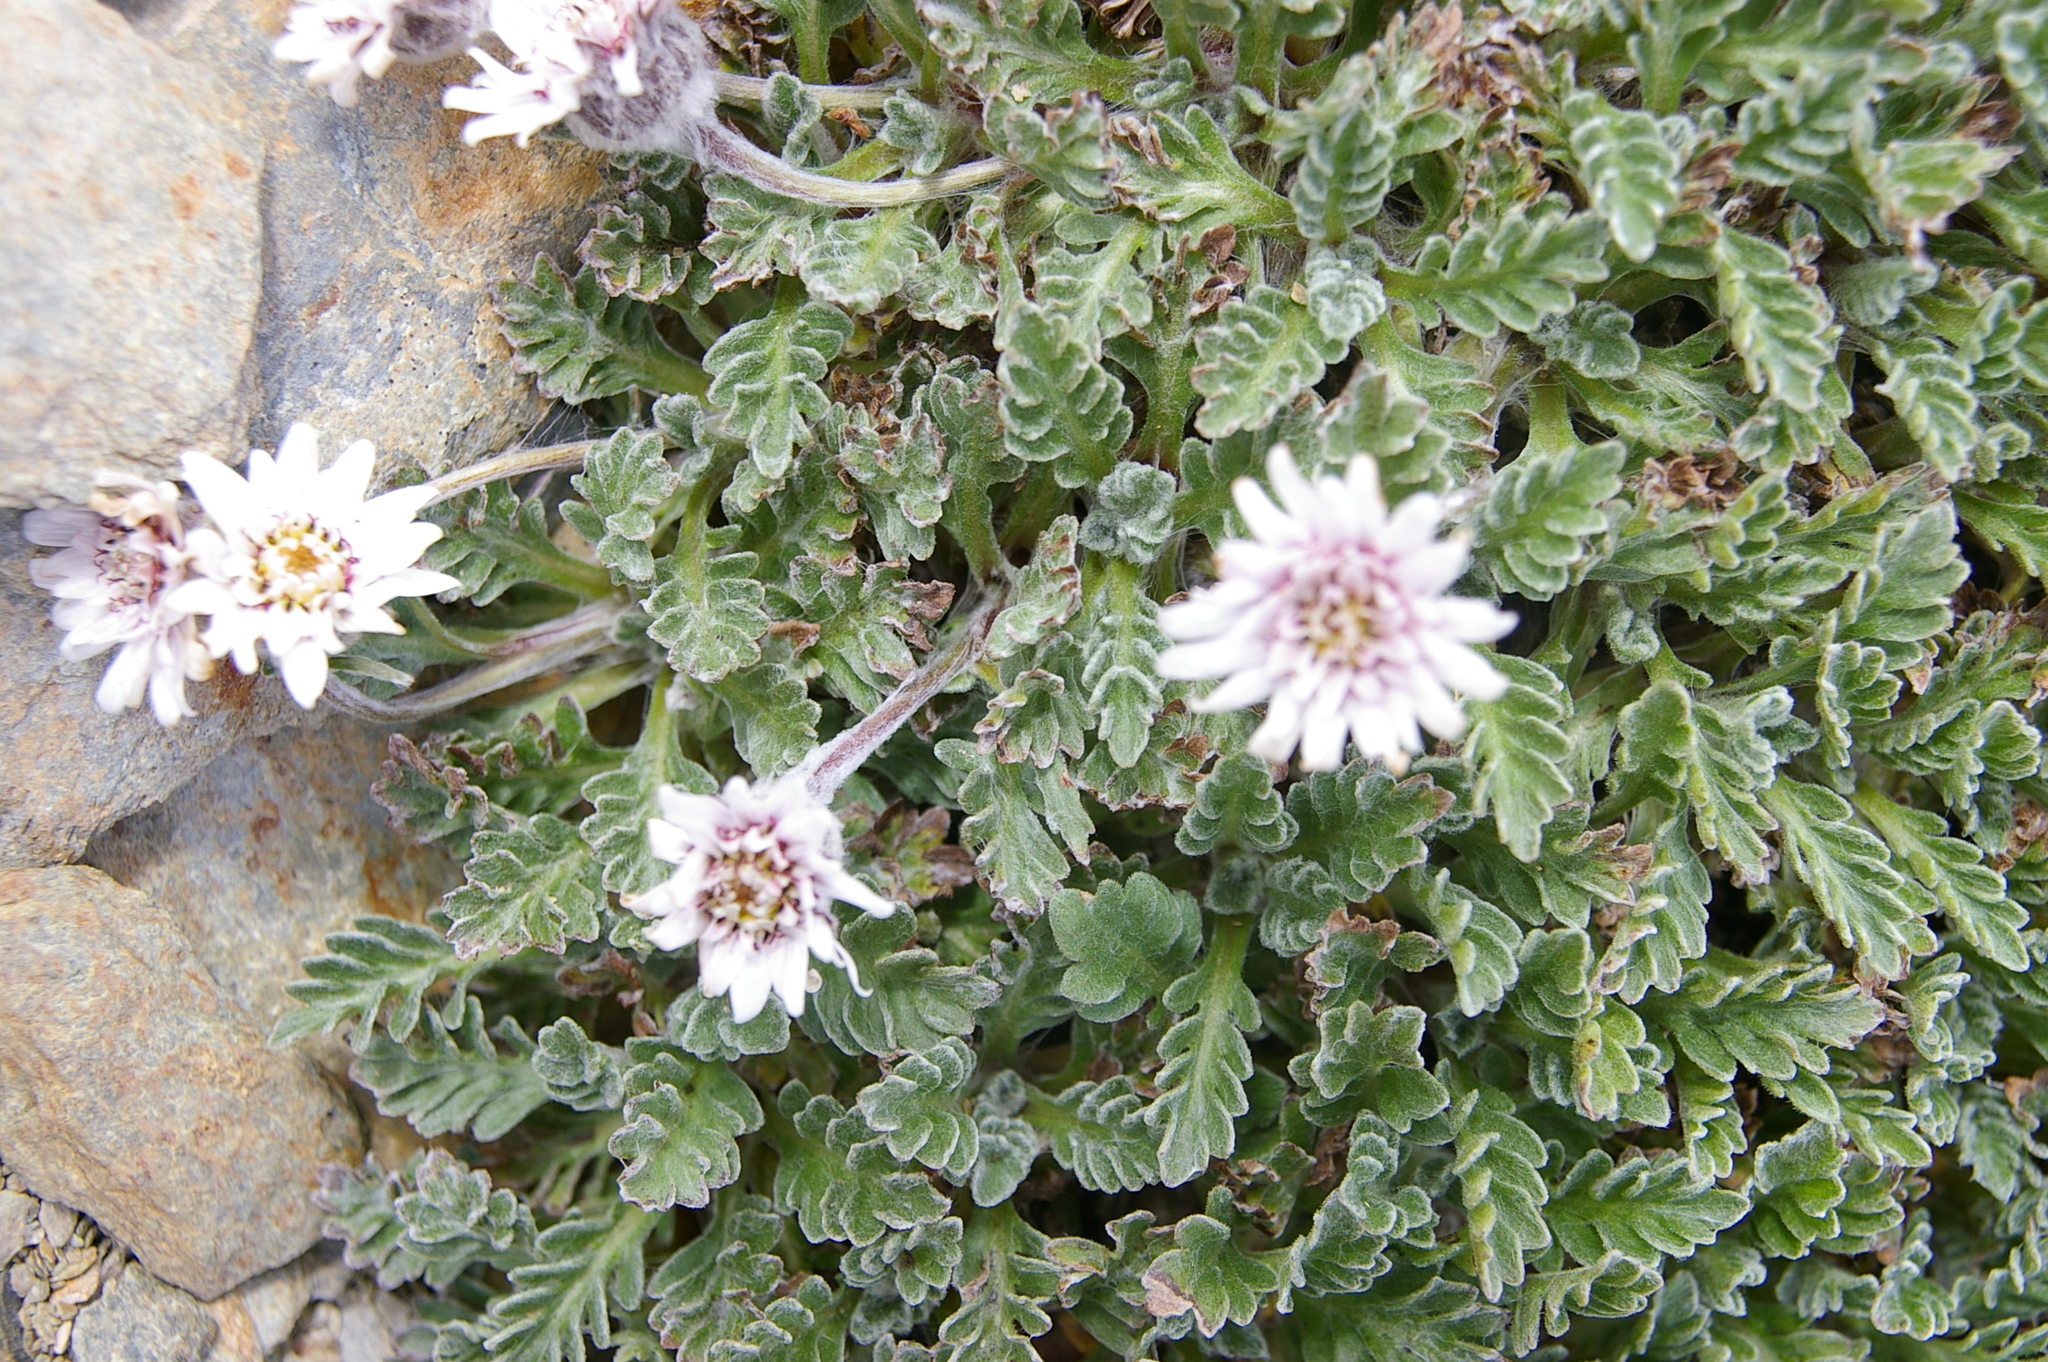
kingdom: Plantae
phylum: Tracheophyta
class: Magnoliopsida
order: Asterales
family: Asteraceae
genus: Leucheria
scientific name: Leucheria hahnii
